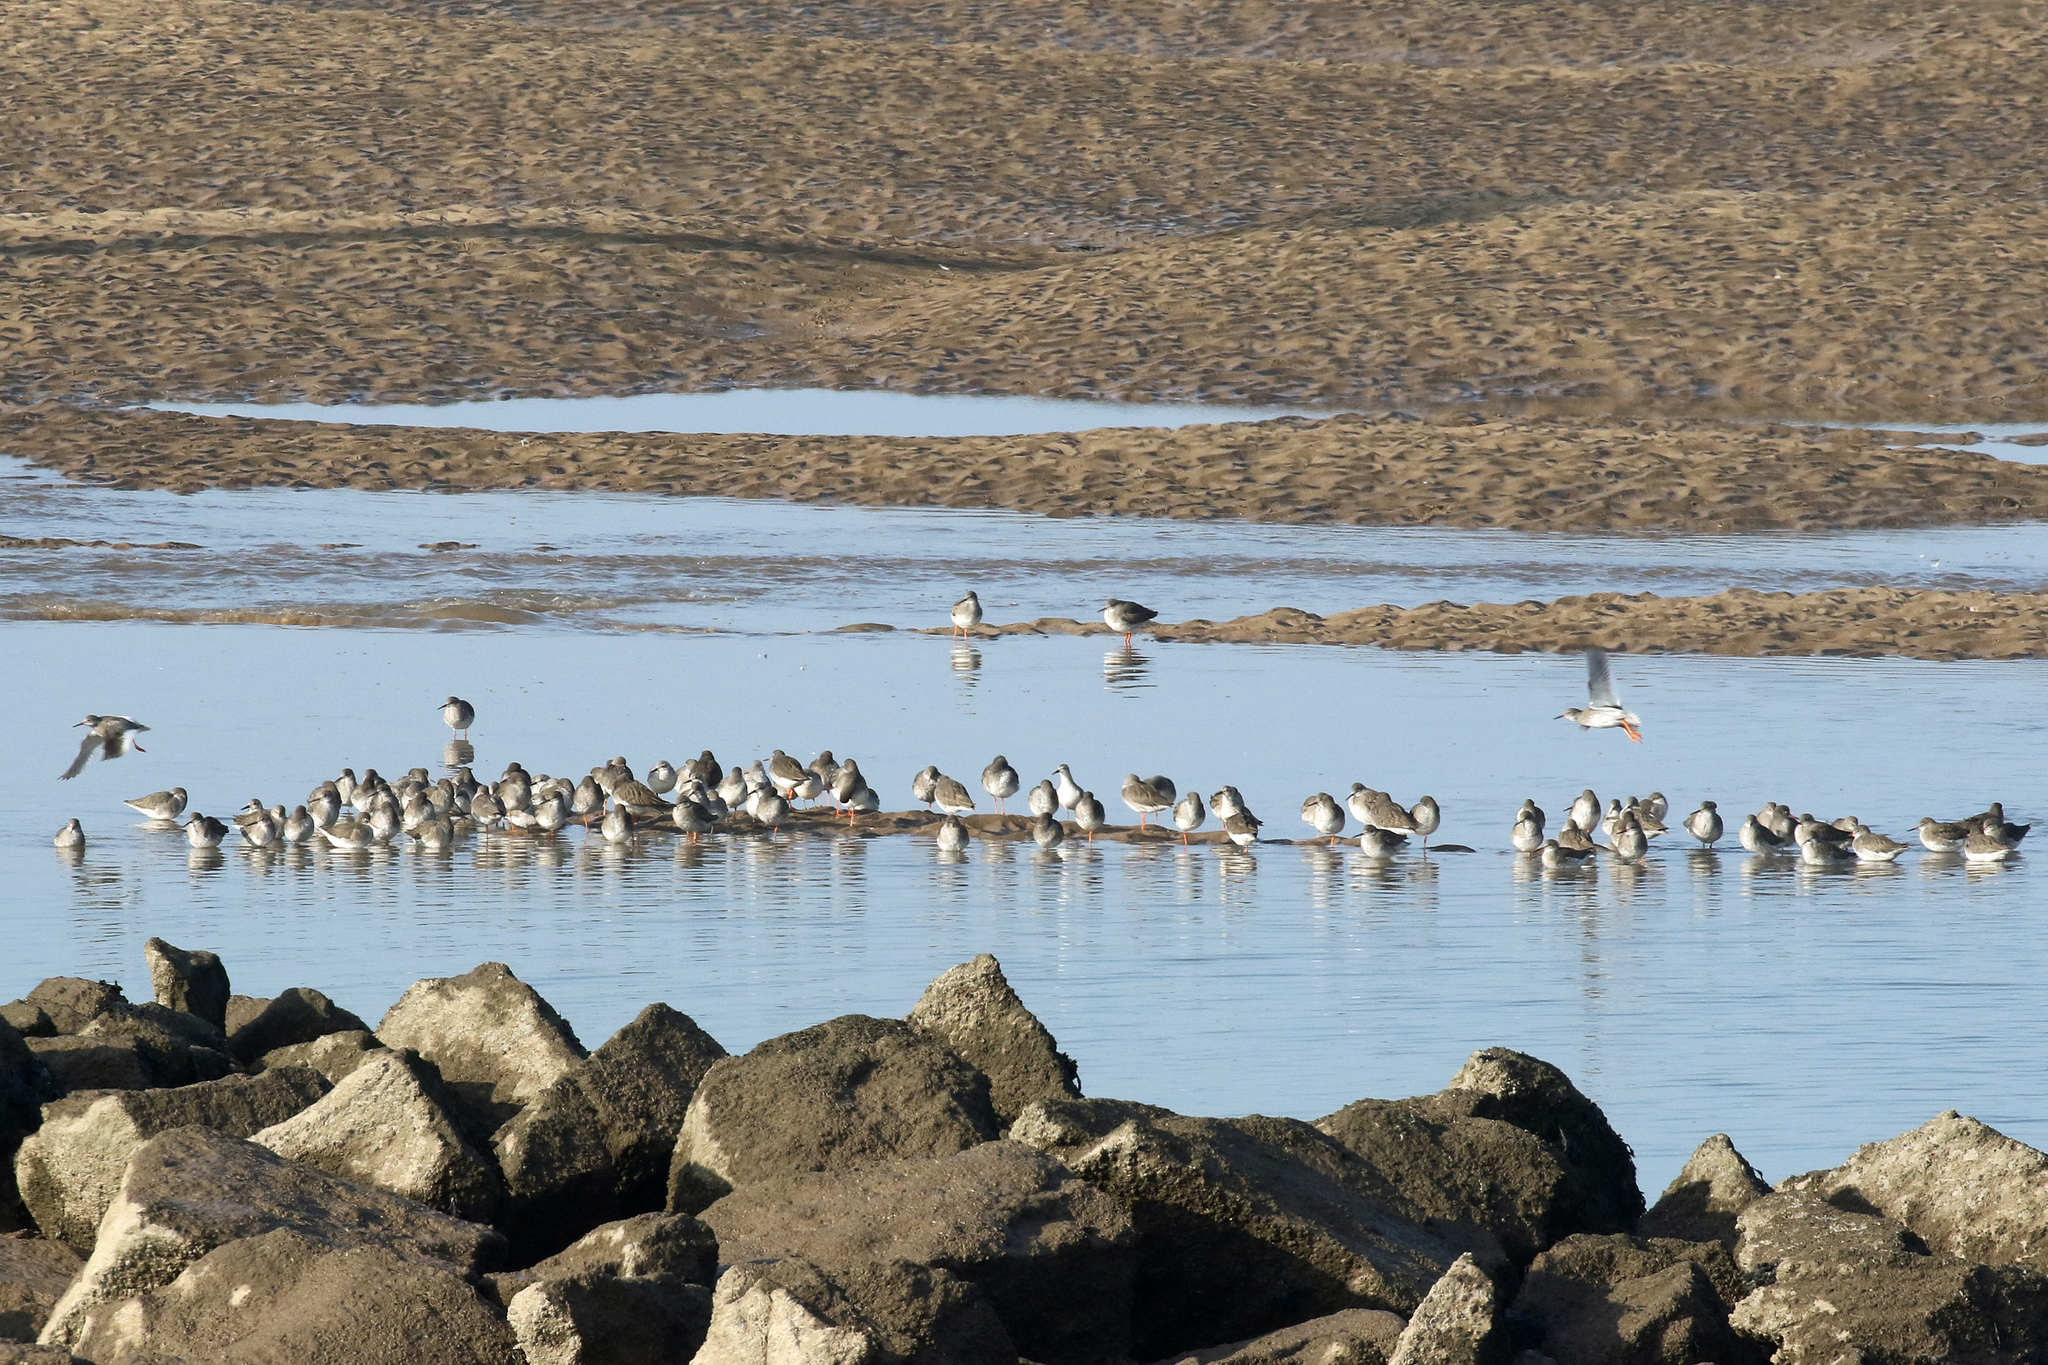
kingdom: Animalia
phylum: Chordata
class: Aves
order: Charadriiformes
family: Scolopacidae
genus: Tringa
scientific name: Tringa totanus
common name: Common redshank
